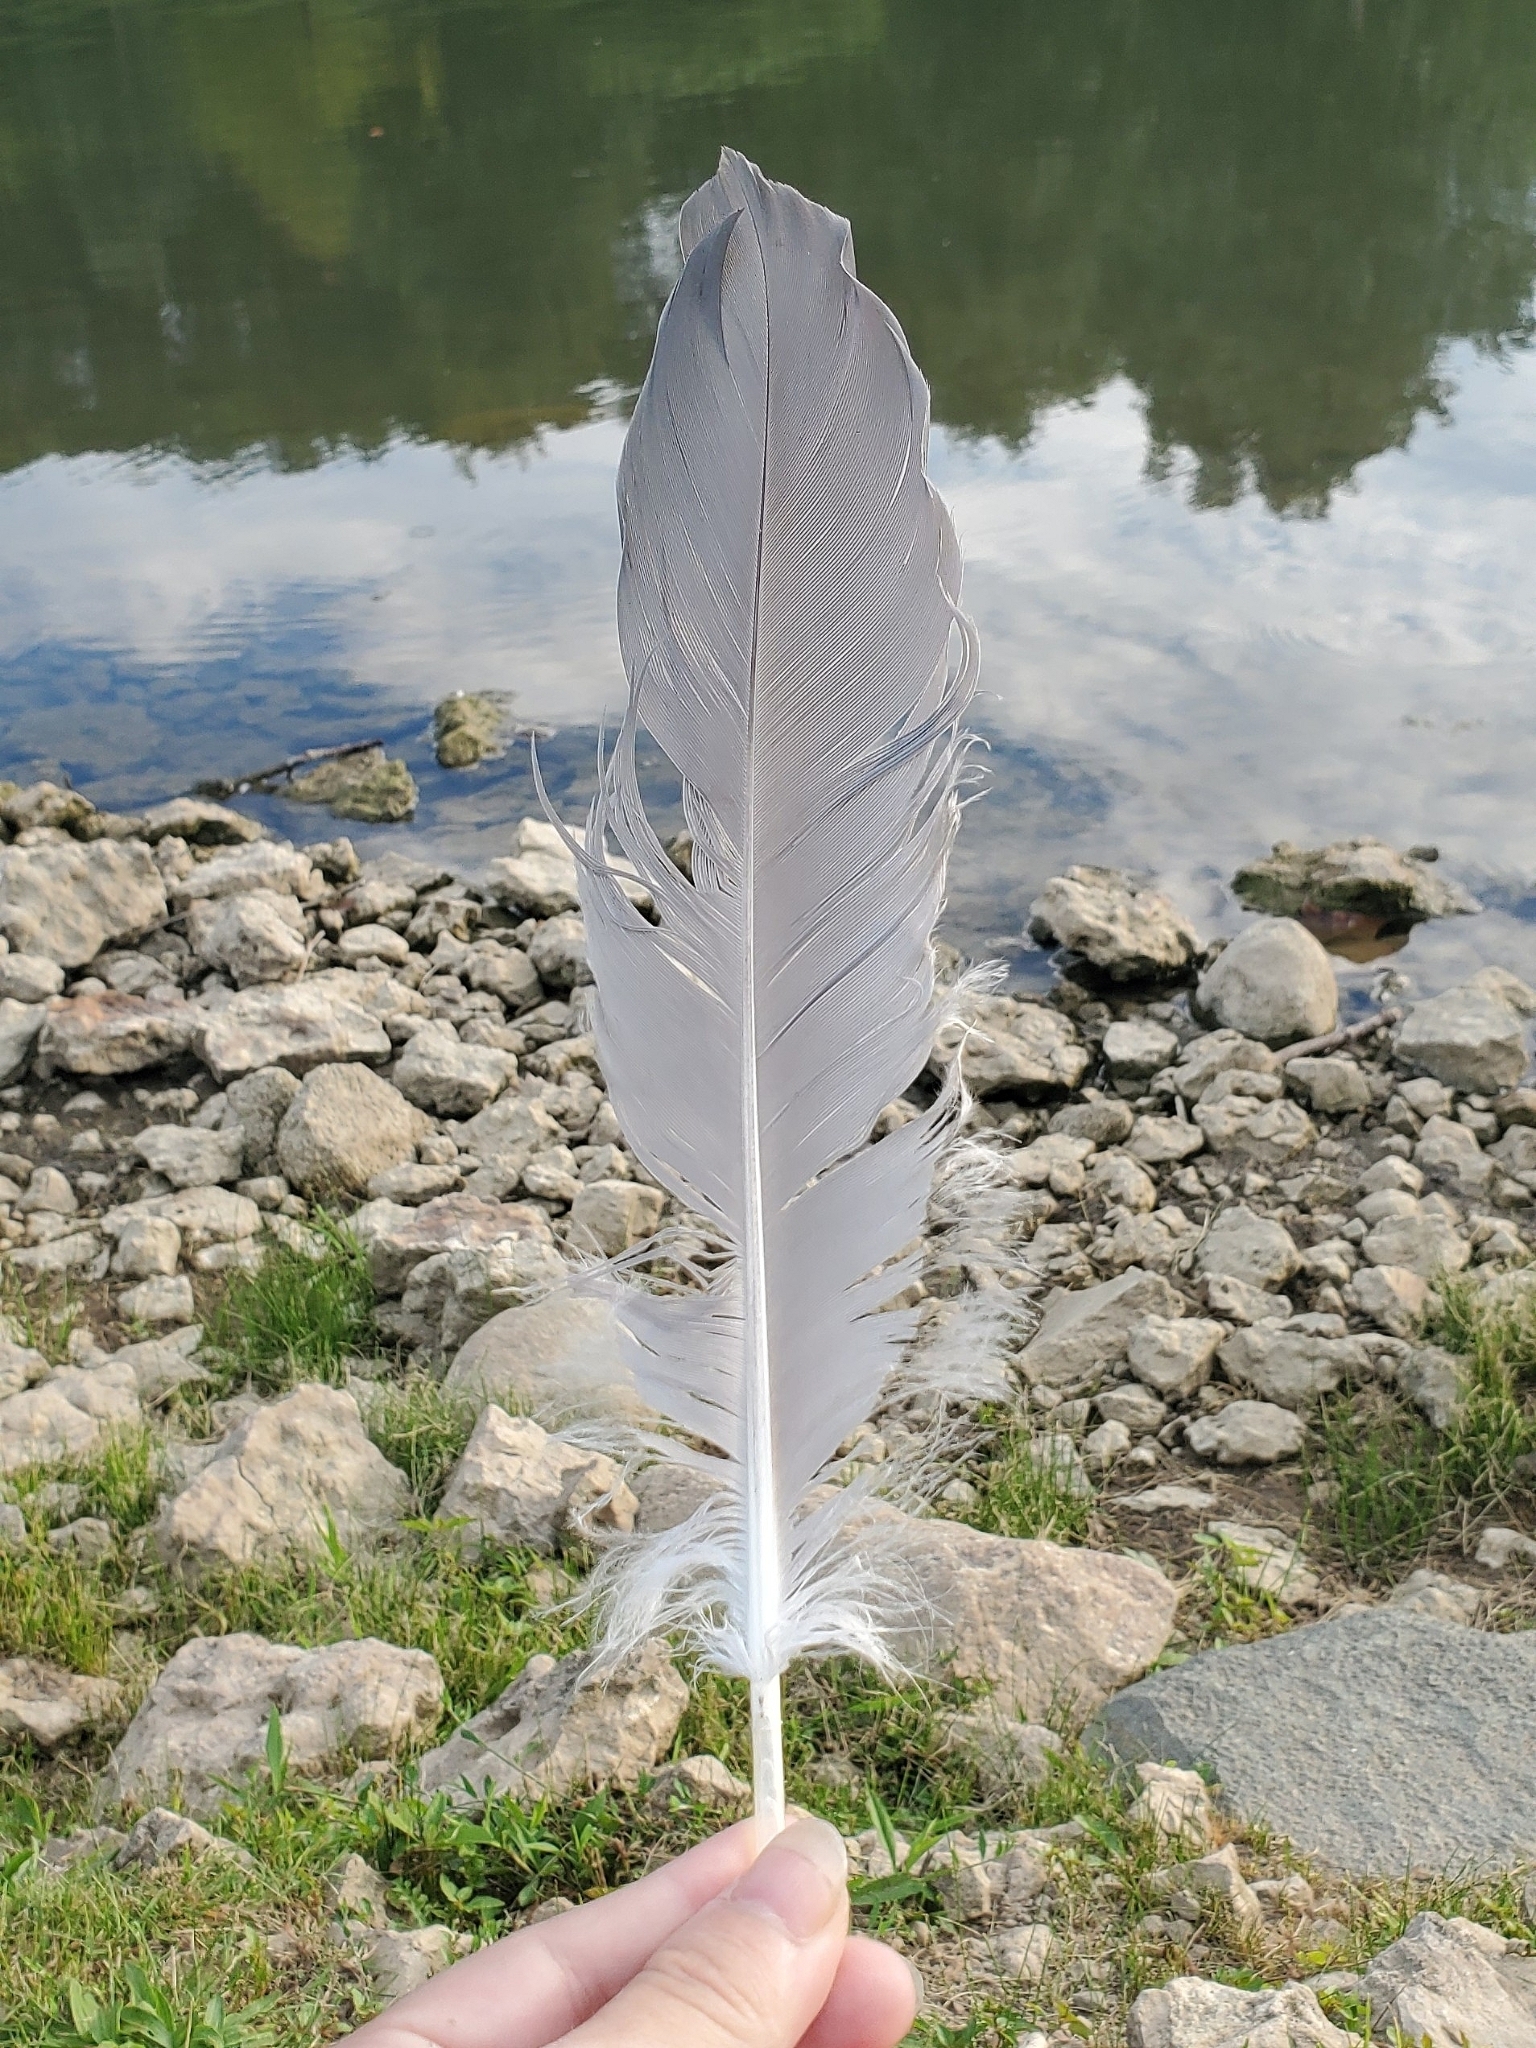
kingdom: Animalia
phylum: Chordata
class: Aves
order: Pelecaniformes
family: Ardeidae
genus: Ardea
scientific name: Ardea herodias
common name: Great blue heron
